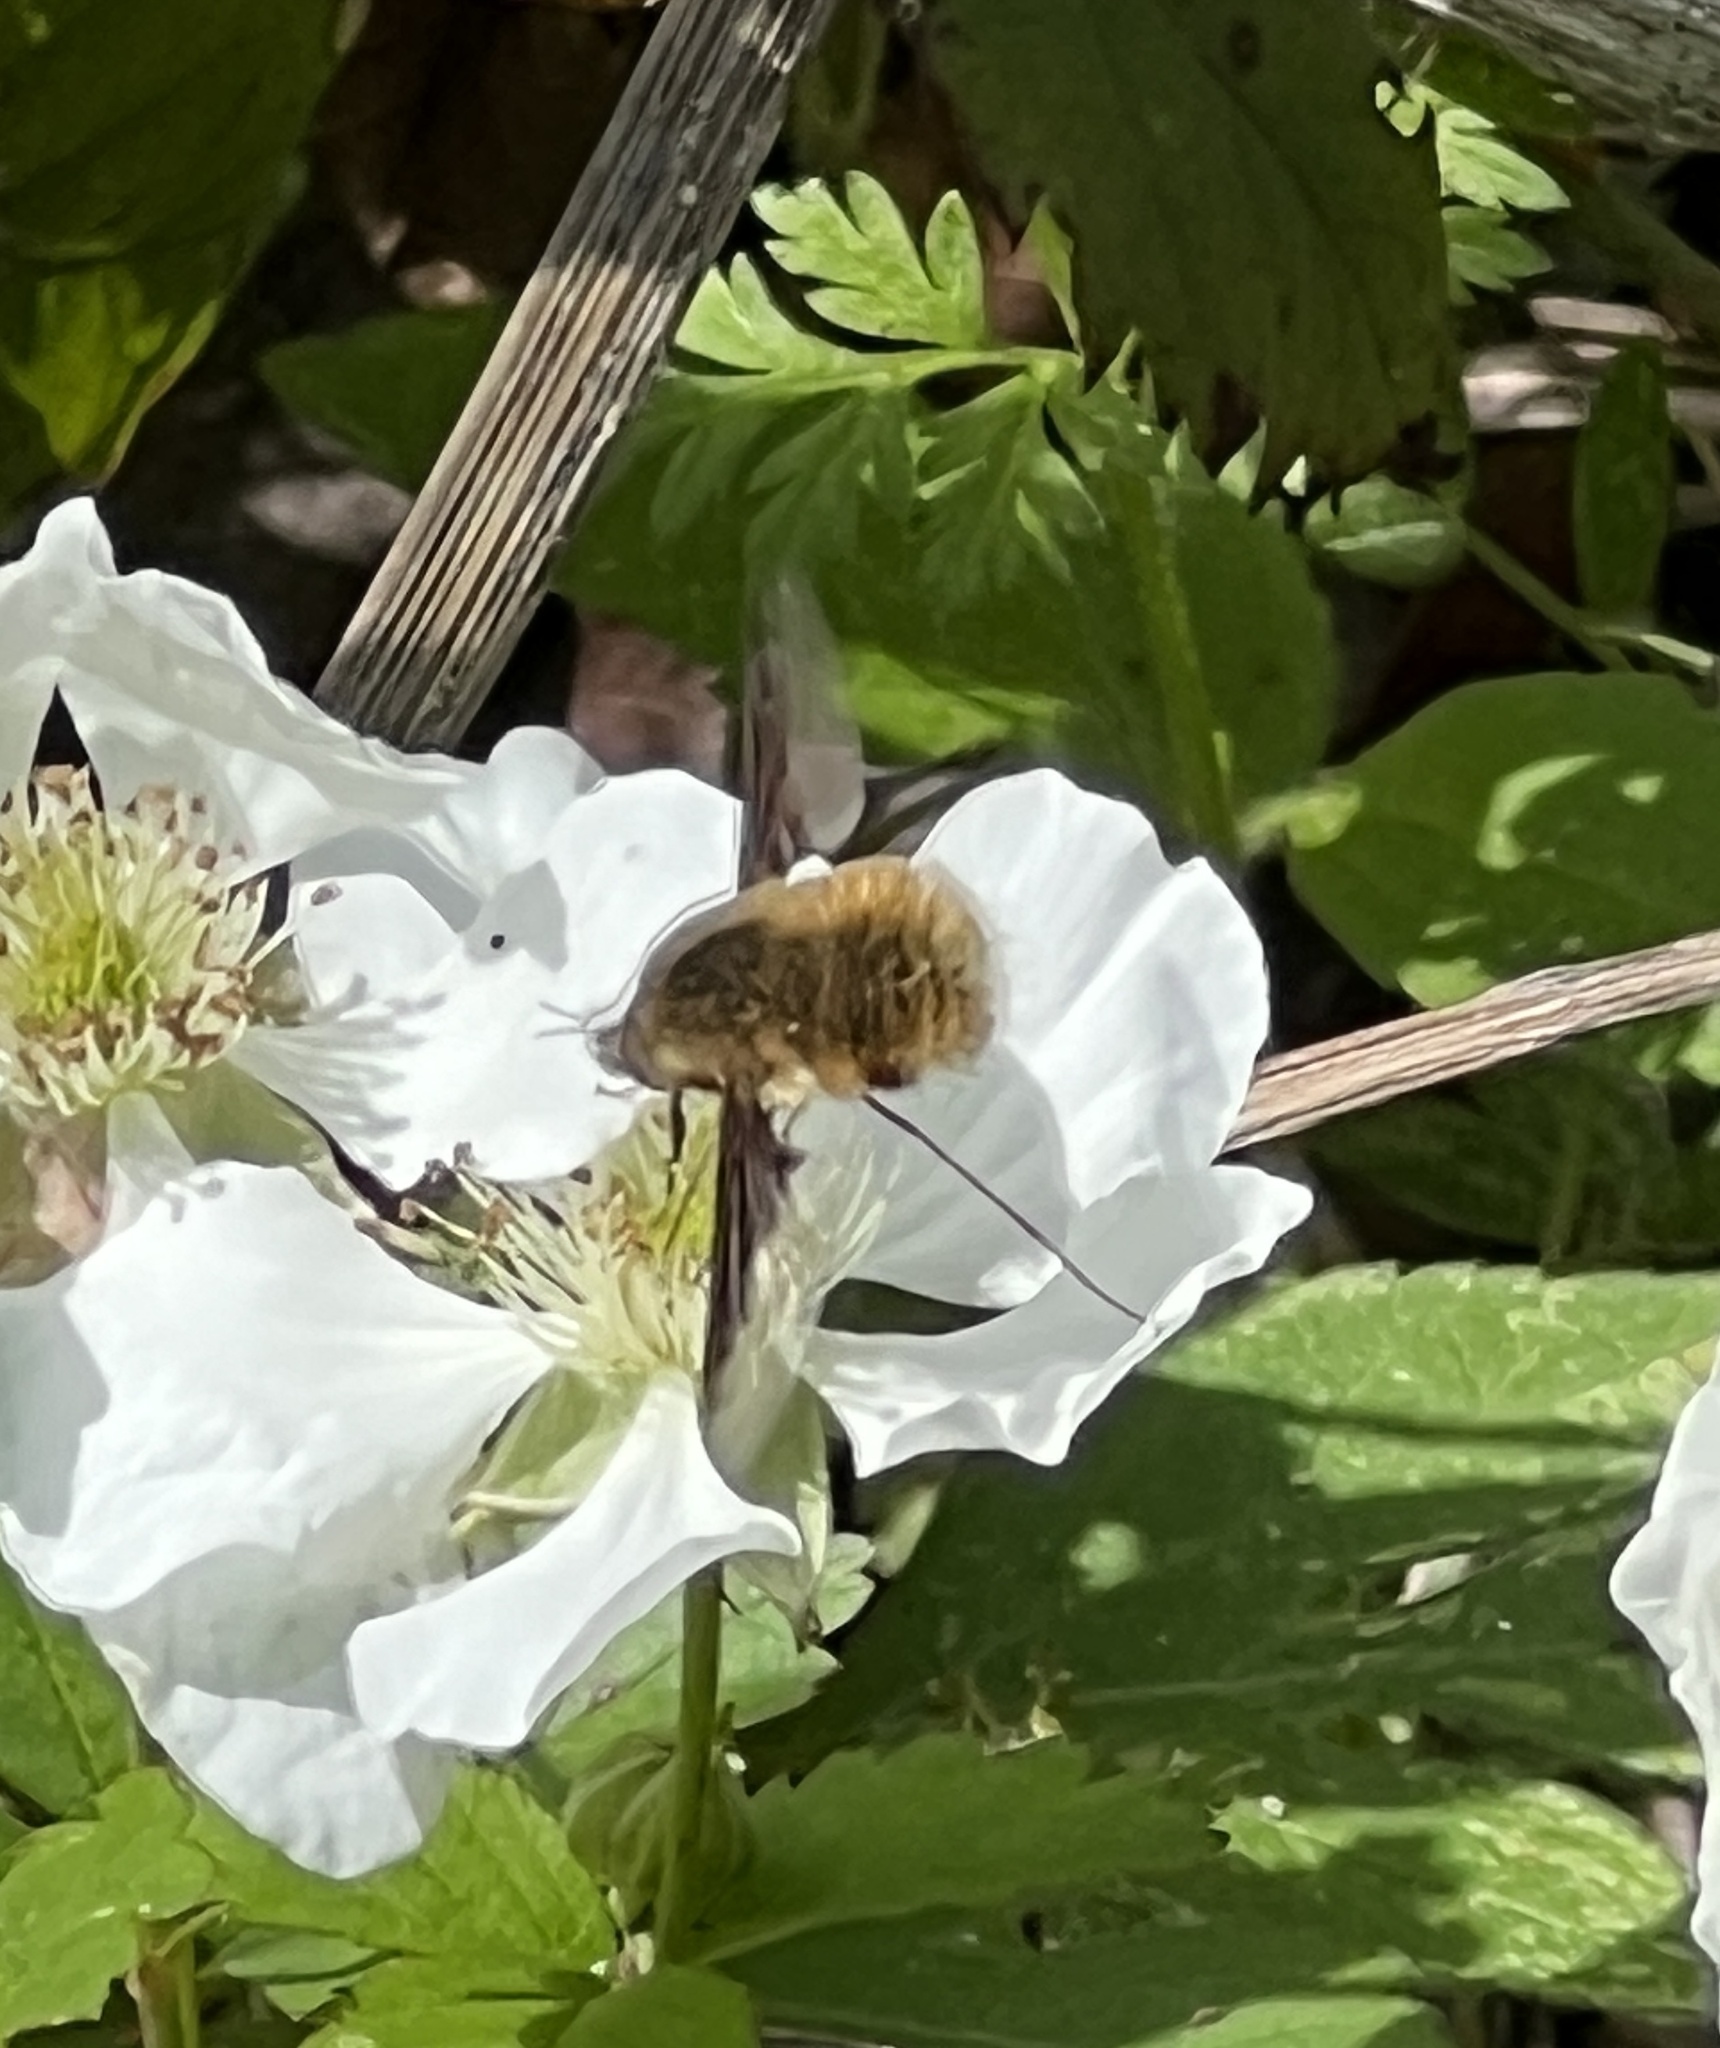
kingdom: Animalia
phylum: Arthropoda
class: Insecta
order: Diptera
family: Bombyliidae
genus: Bombylius
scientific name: Bombylius major
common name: Bee fly
